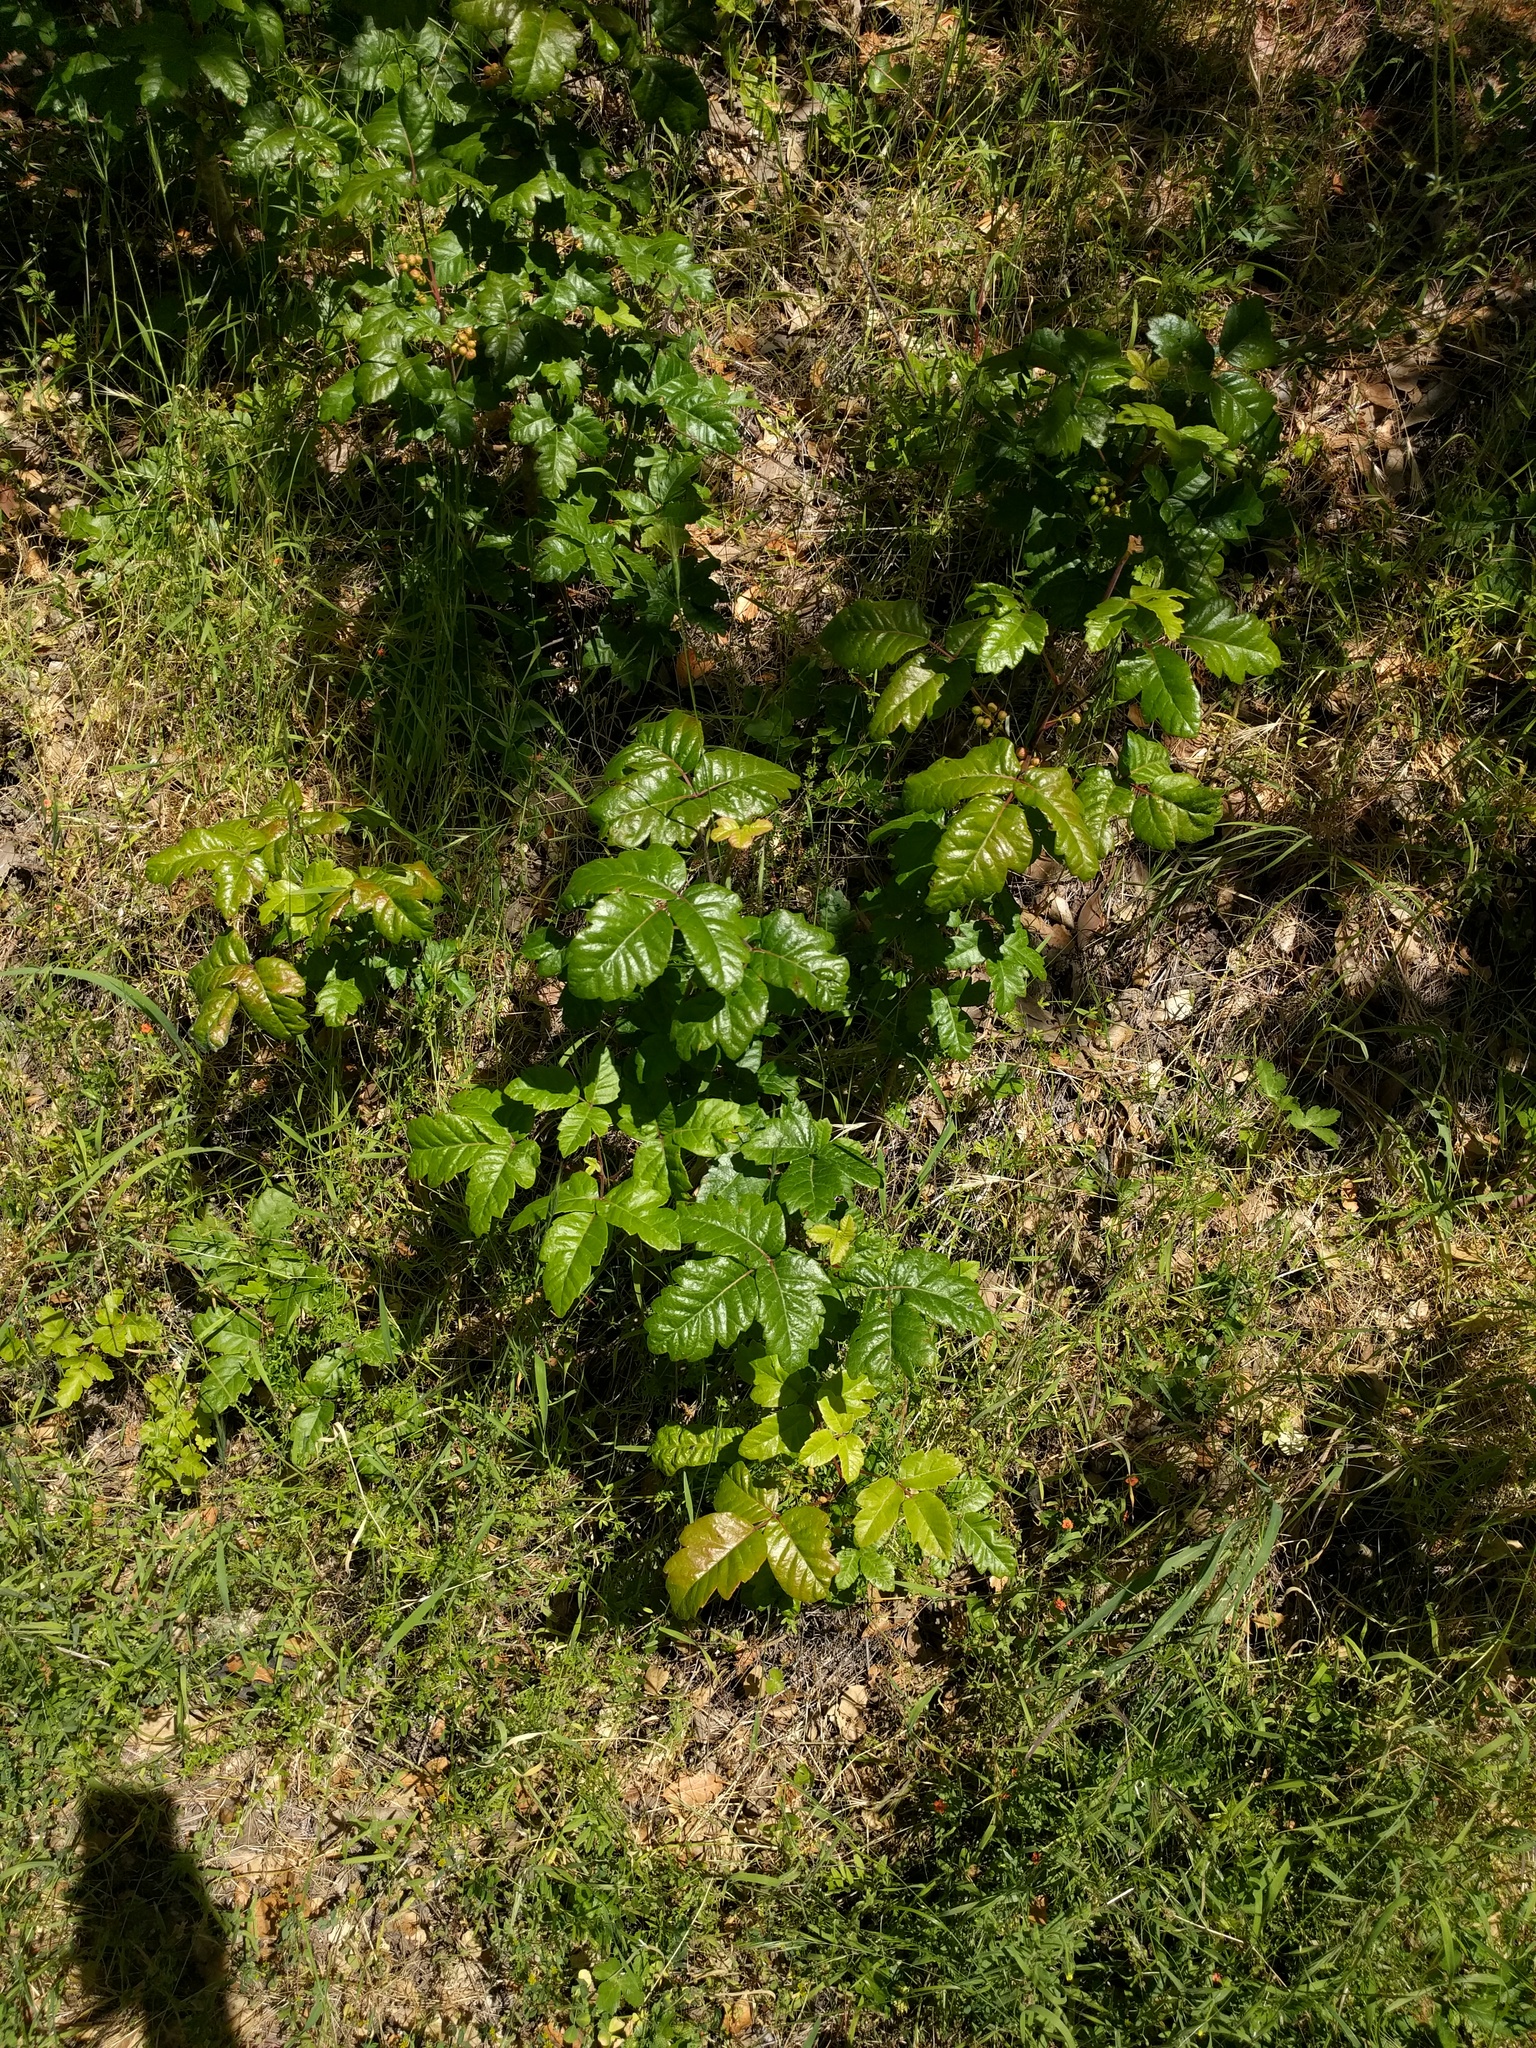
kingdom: Plantae
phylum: Tracheophyta
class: Magnoliopsida
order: Sapindales
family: Anacardiaceae
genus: Toxicodendron
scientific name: Toxicodendron diversilobum
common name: Pacific poison-oak
